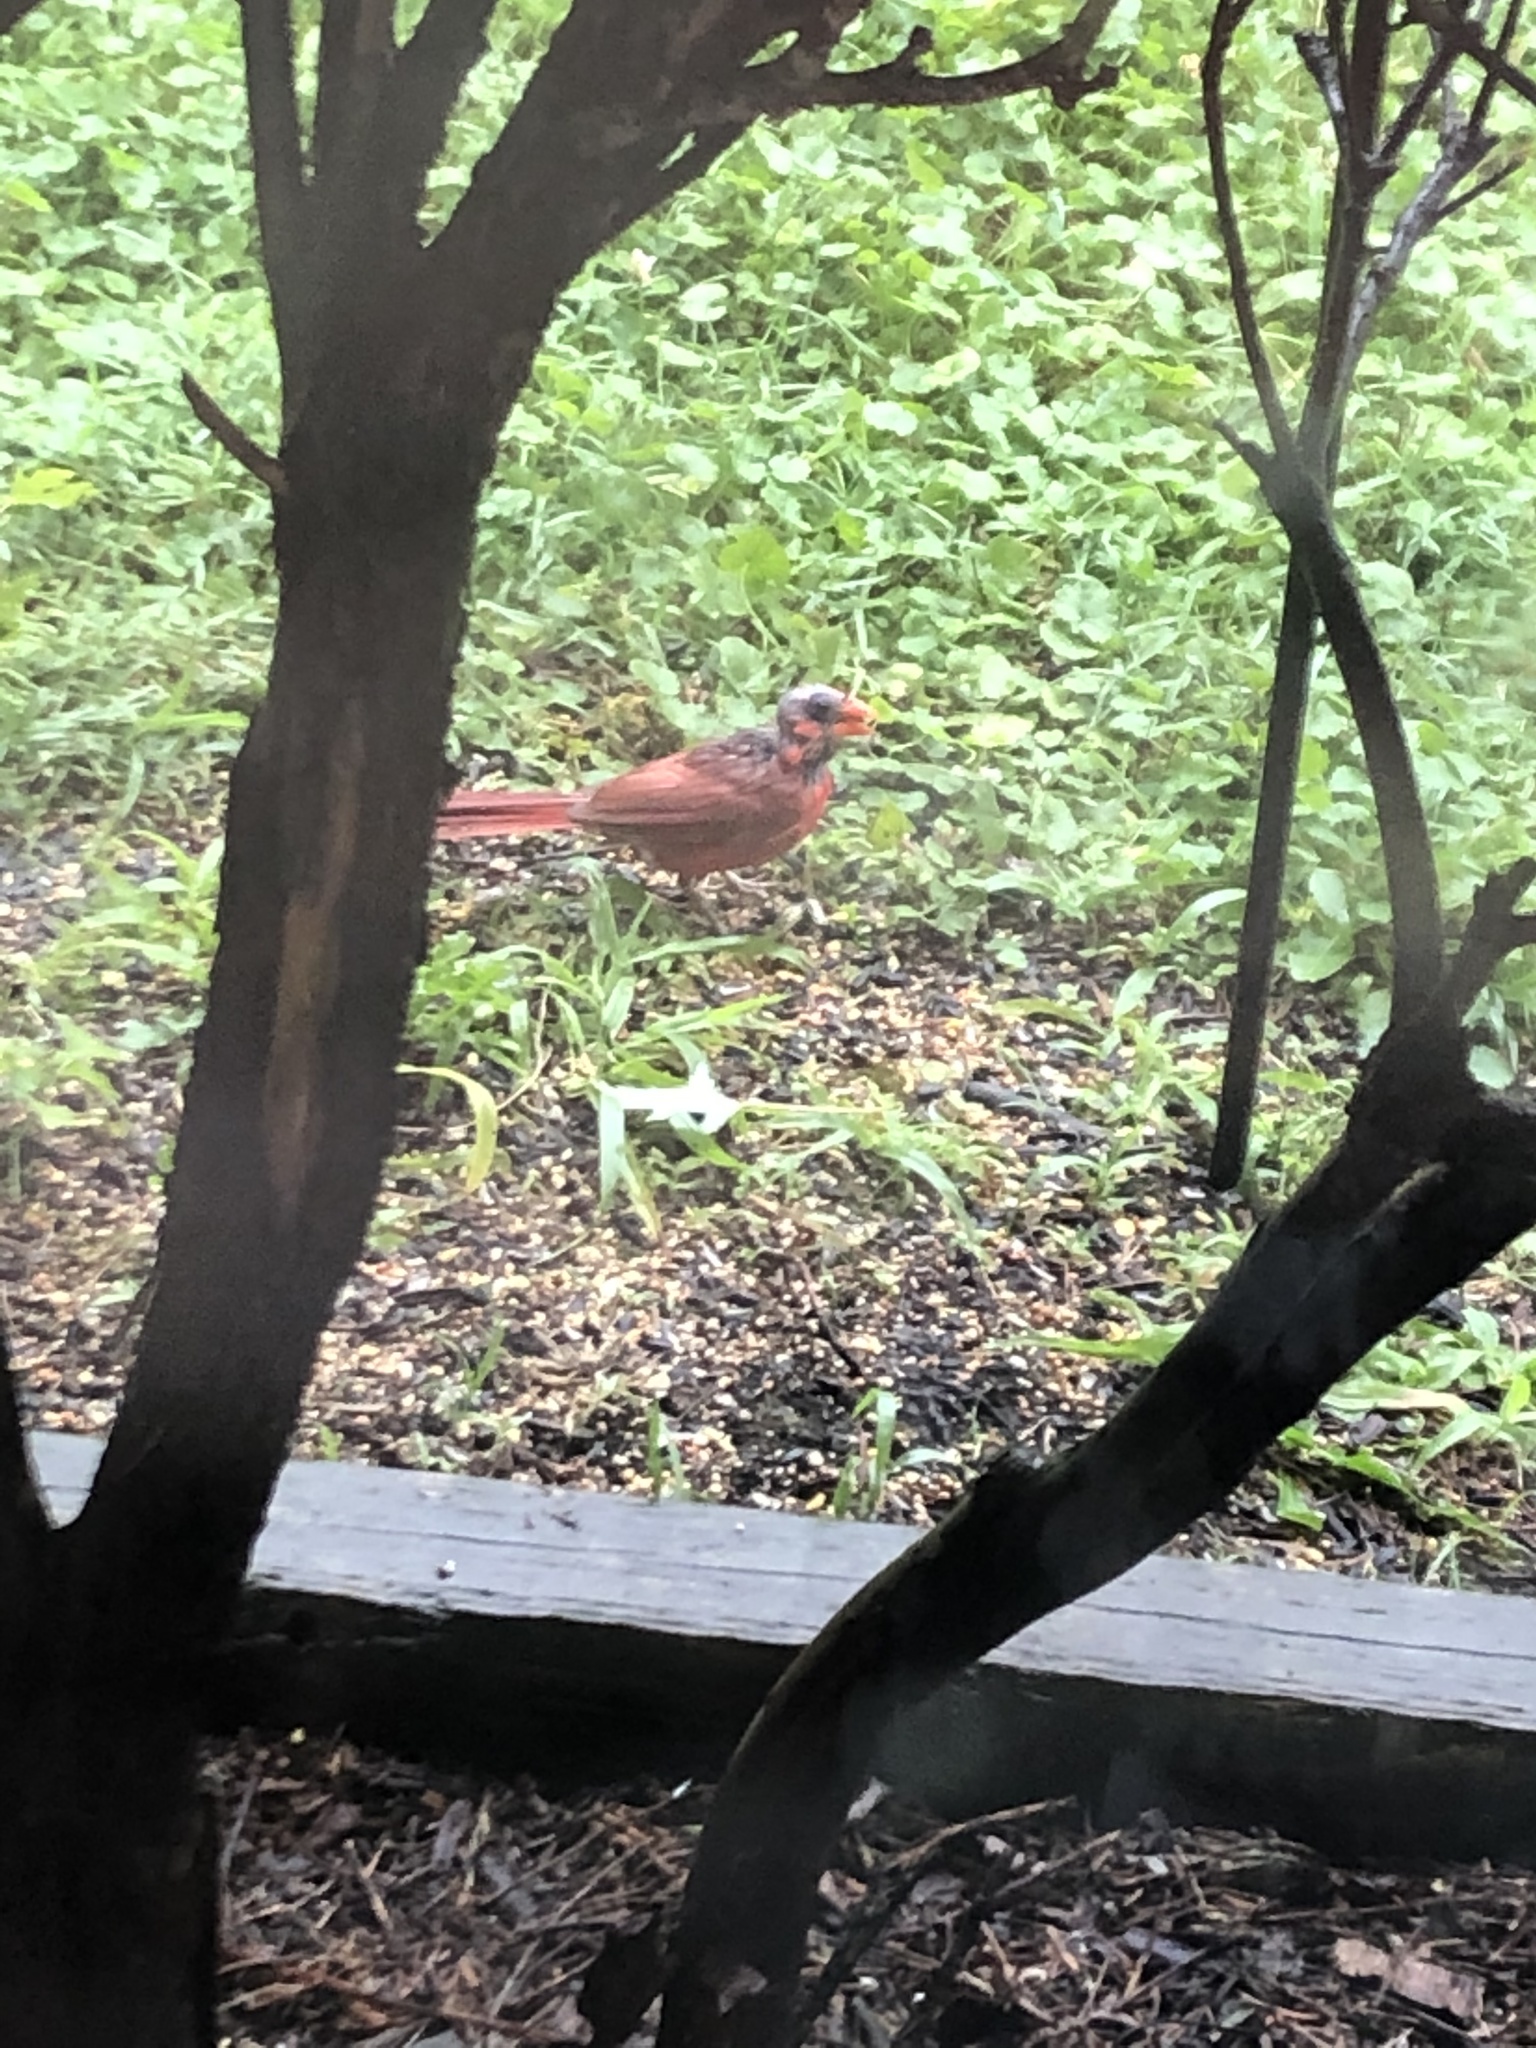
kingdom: Animalia
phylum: Chordata
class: Aves
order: Passeriformes
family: Cardinalidae
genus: Cardinalis
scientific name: Cardinalis cardinalis
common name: Northern cardinal
